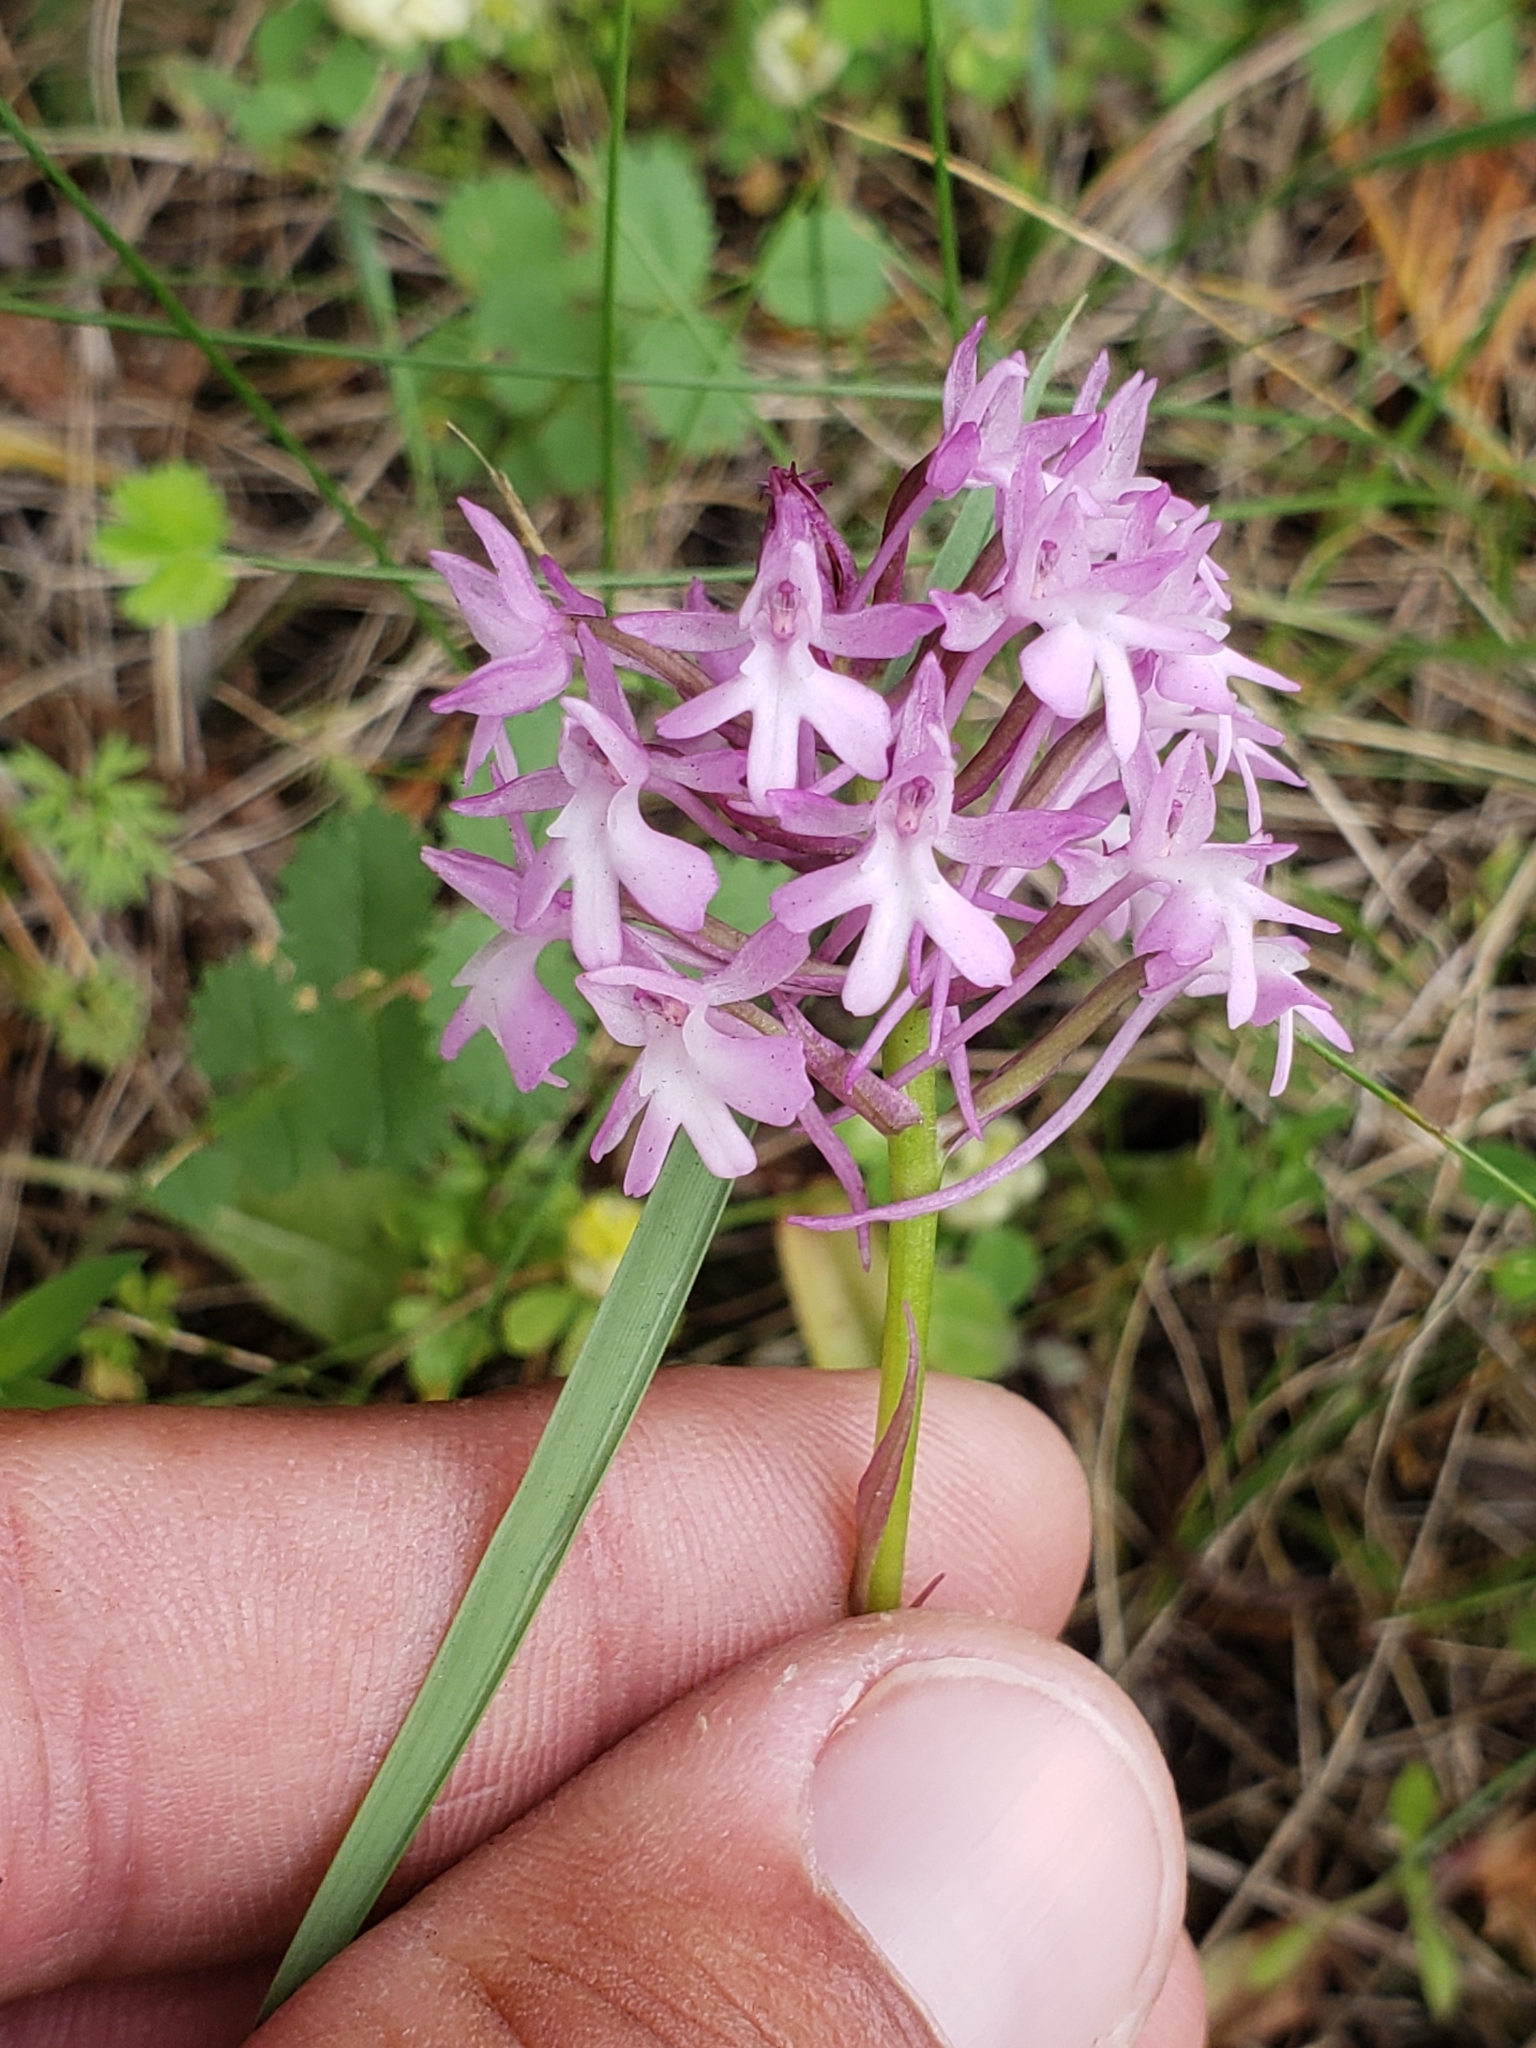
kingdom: Plantae
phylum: Tracheophyta
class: Liliopsida
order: Asparagales
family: Orchidaceae
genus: Anacamptis
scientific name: Anacamptis pyramidalis
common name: Pyramidal orchid
